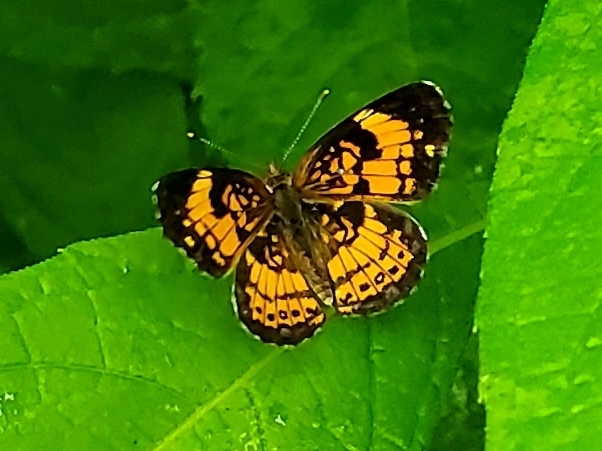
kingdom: Animalia
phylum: Arthropoda
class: Insecta
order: Lepidoptera
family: Nymphalidae
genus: Chlosyne
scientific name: Chlosyne nycteis
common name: Silvery checkerspot
